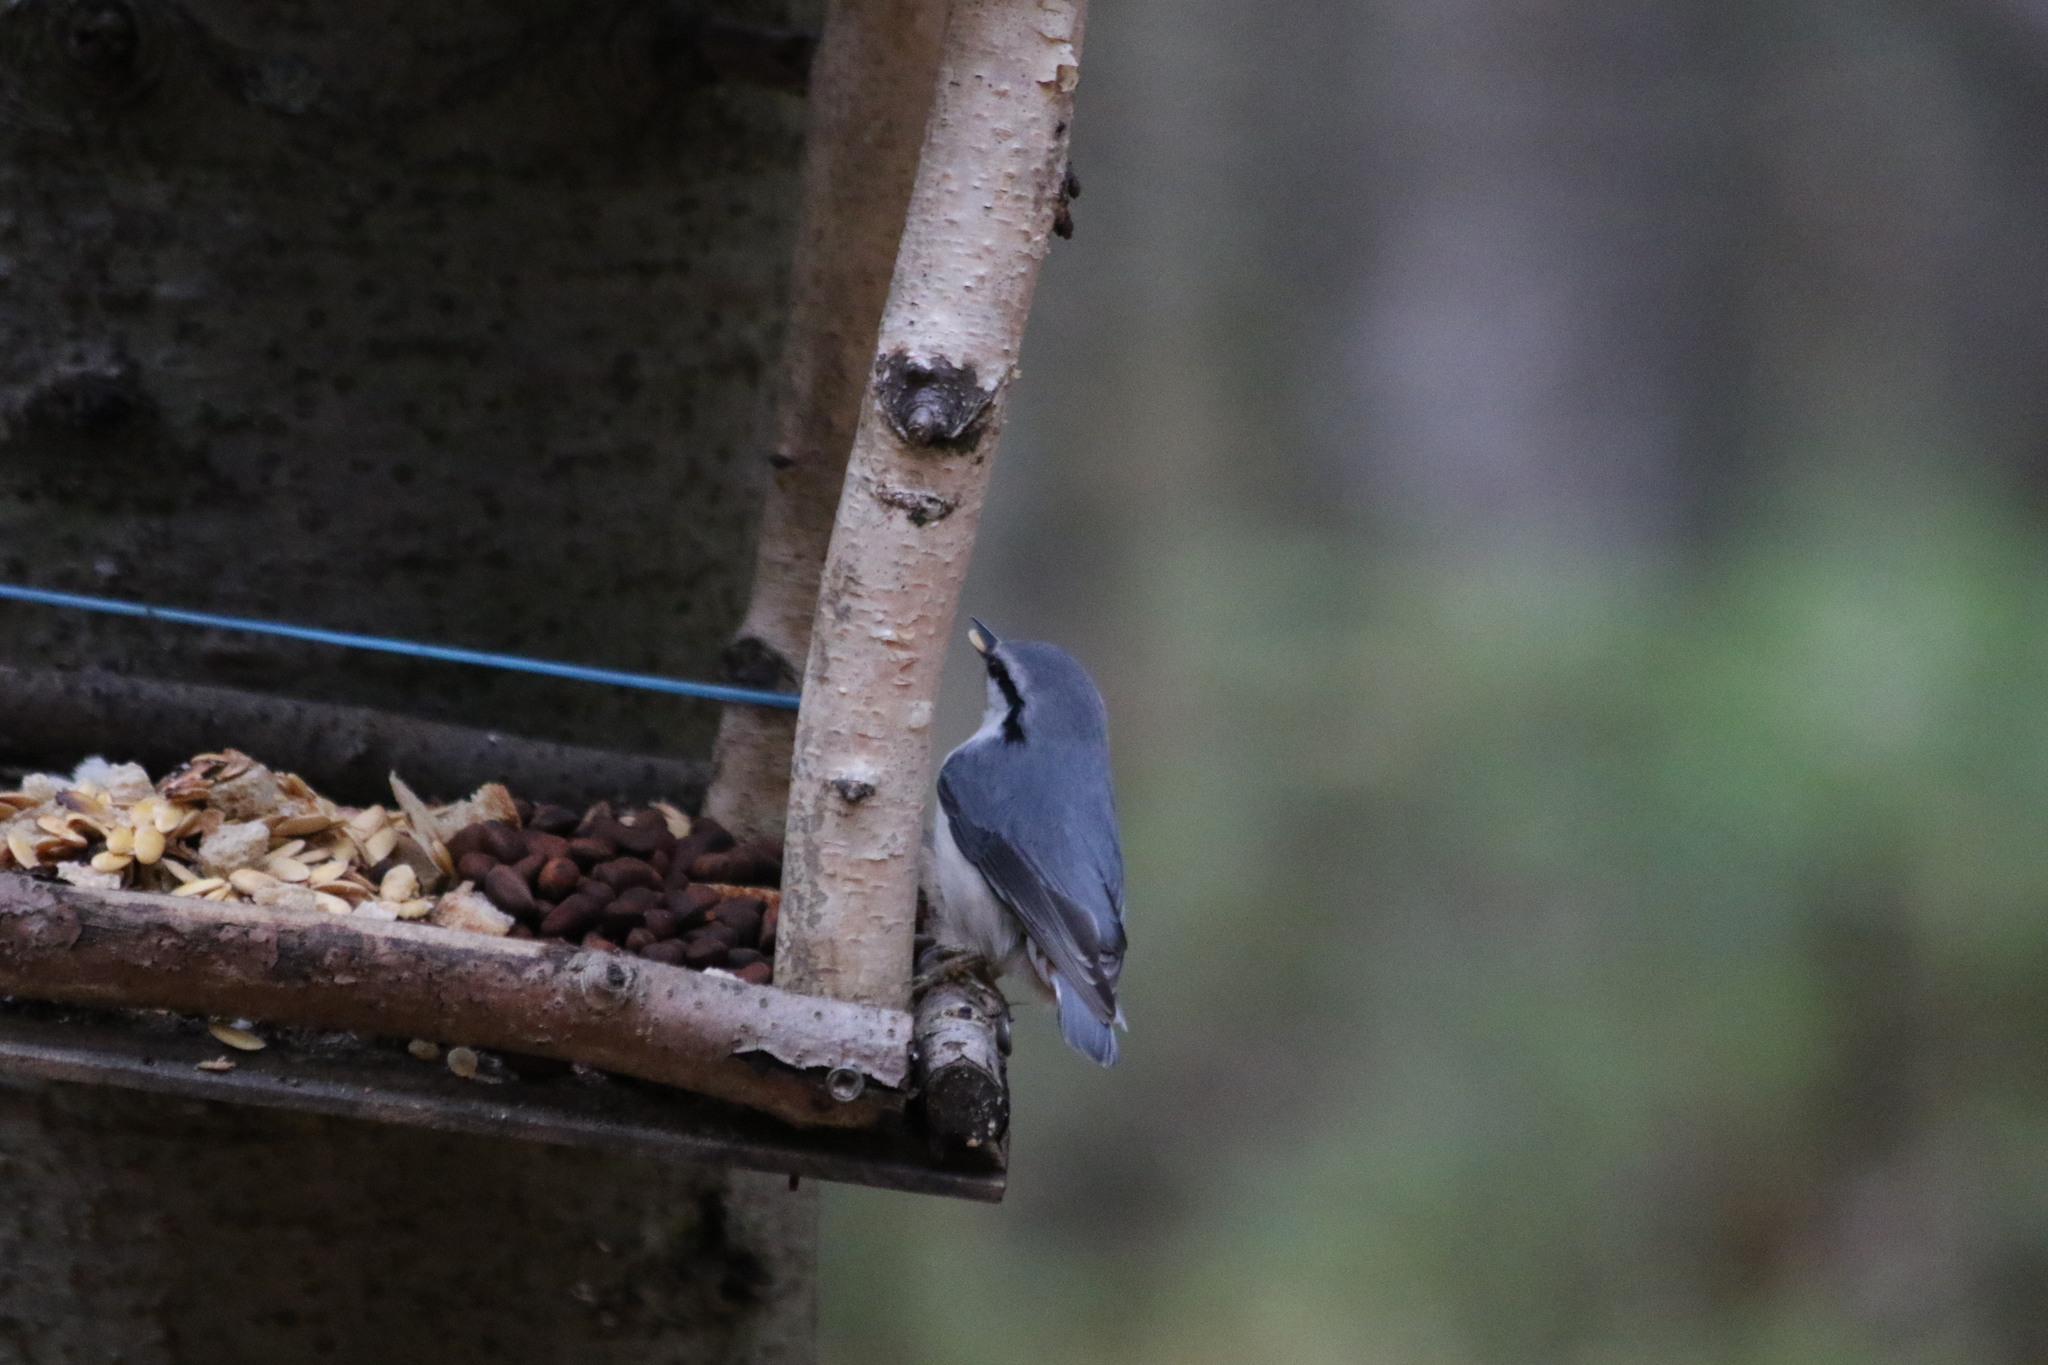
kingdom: Animalia
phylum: Chordata
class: Aves
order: Passeriformes
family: Sittidae
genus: Sitta
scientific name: Sitta europaea
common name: Eurasian nuthatch
